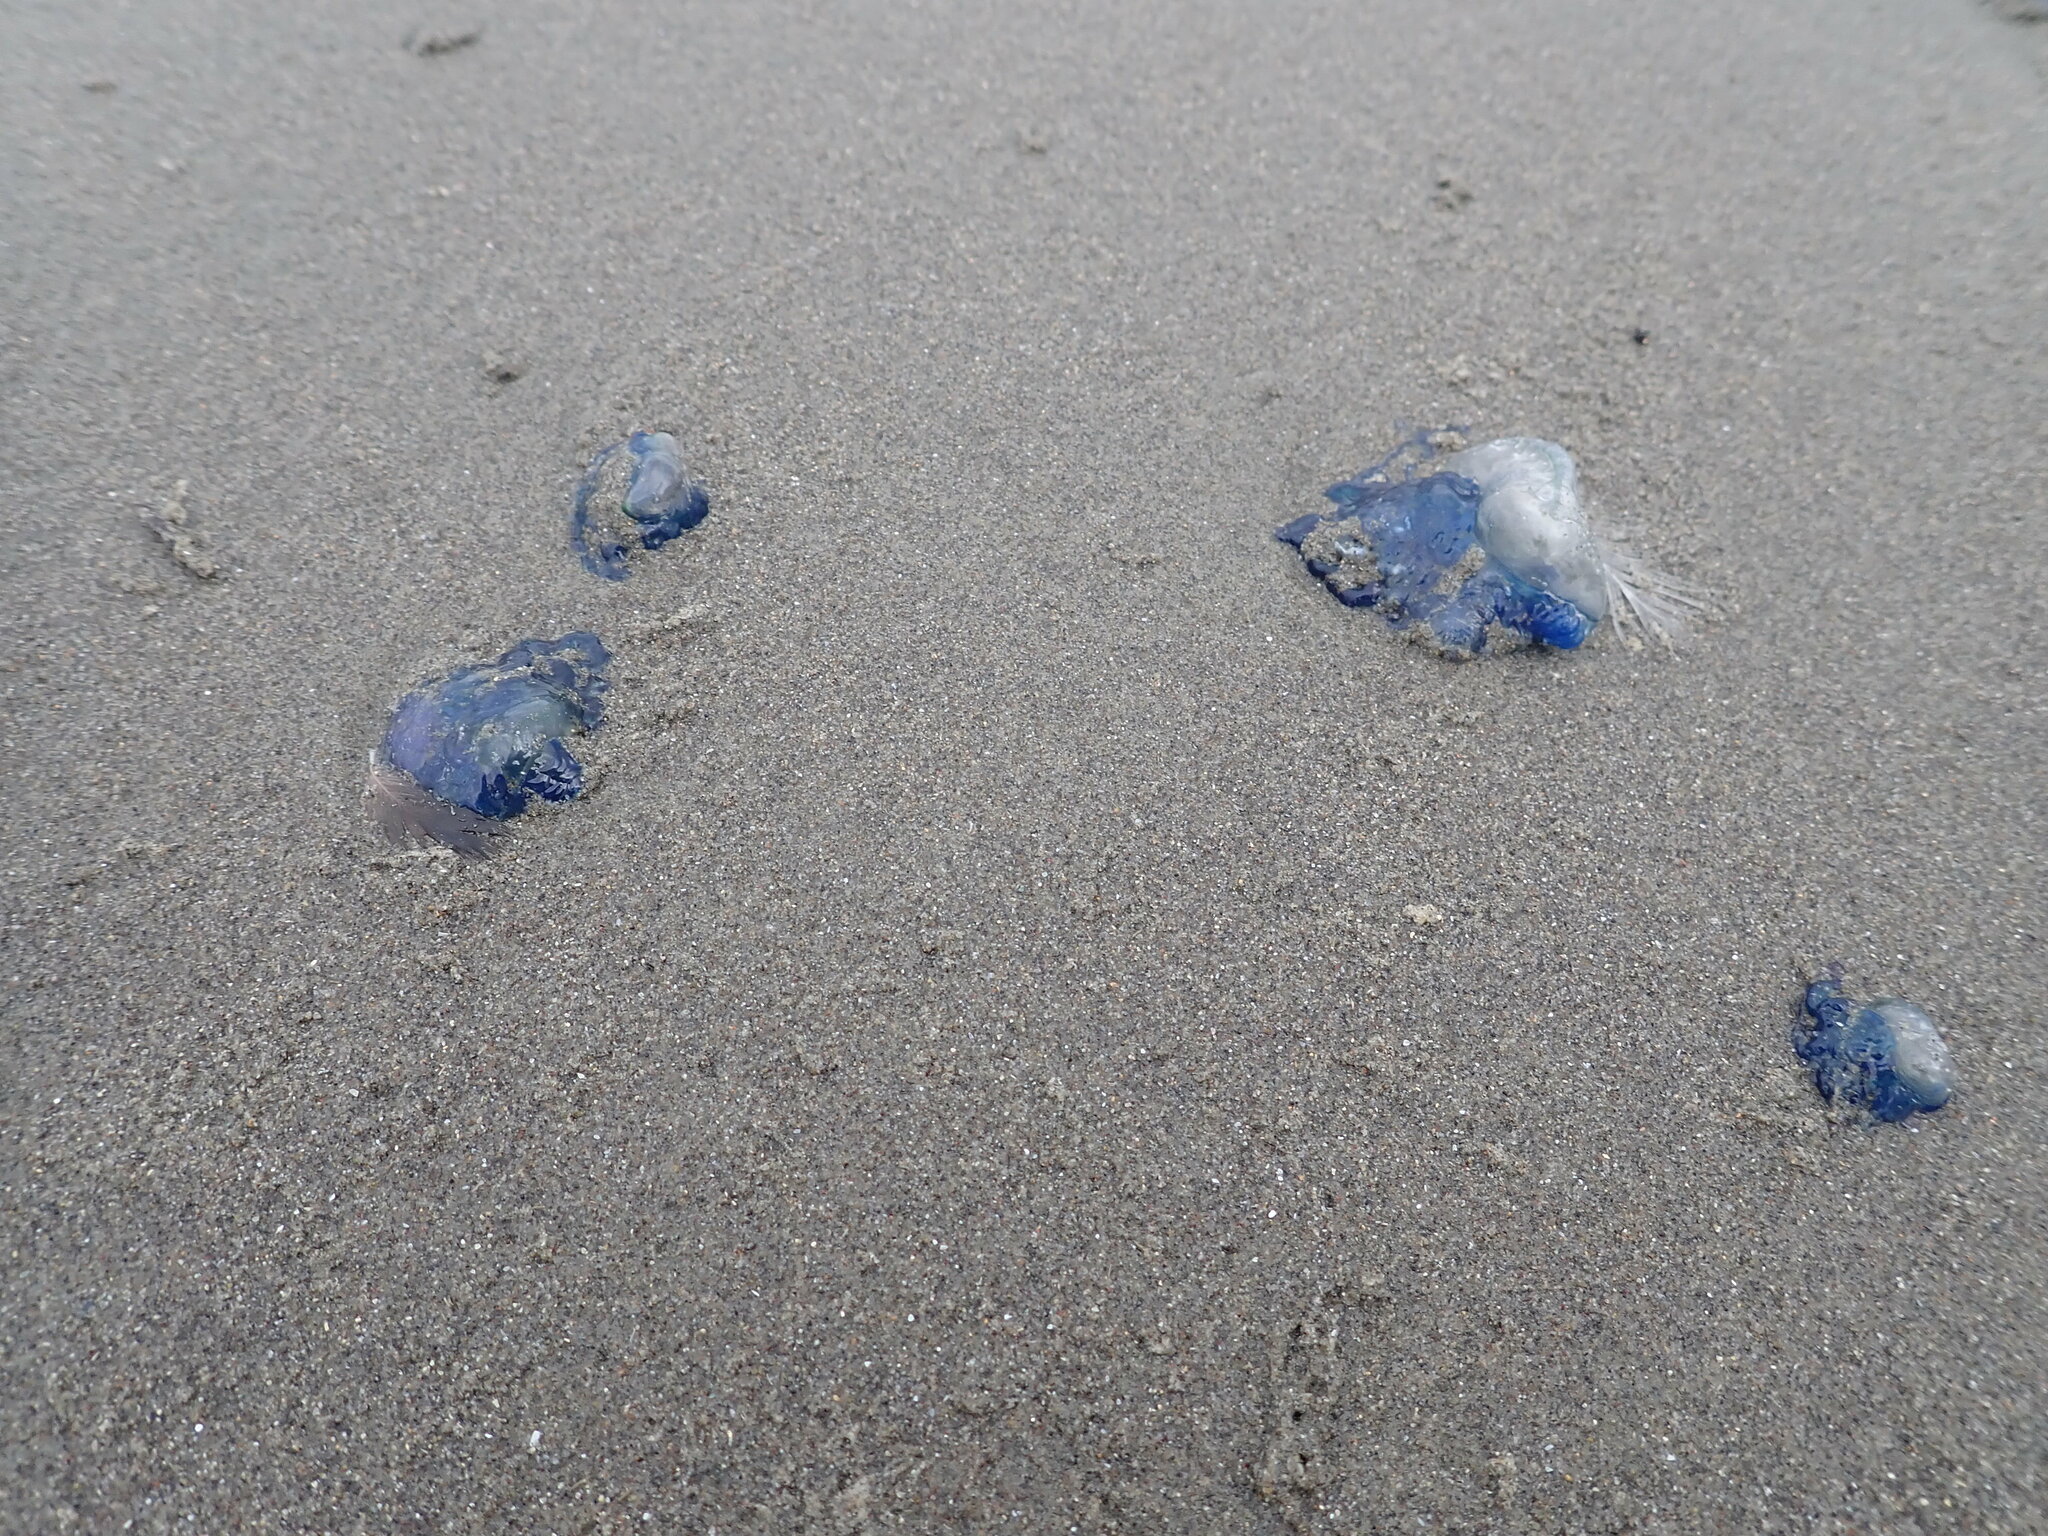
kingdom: Animalia
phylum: Cnidaria
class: Hydrozoa
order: Siphonophorae
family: Physaliidae
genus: Physalia
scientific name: Physalia physalis
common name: Portuguese man-of-war
